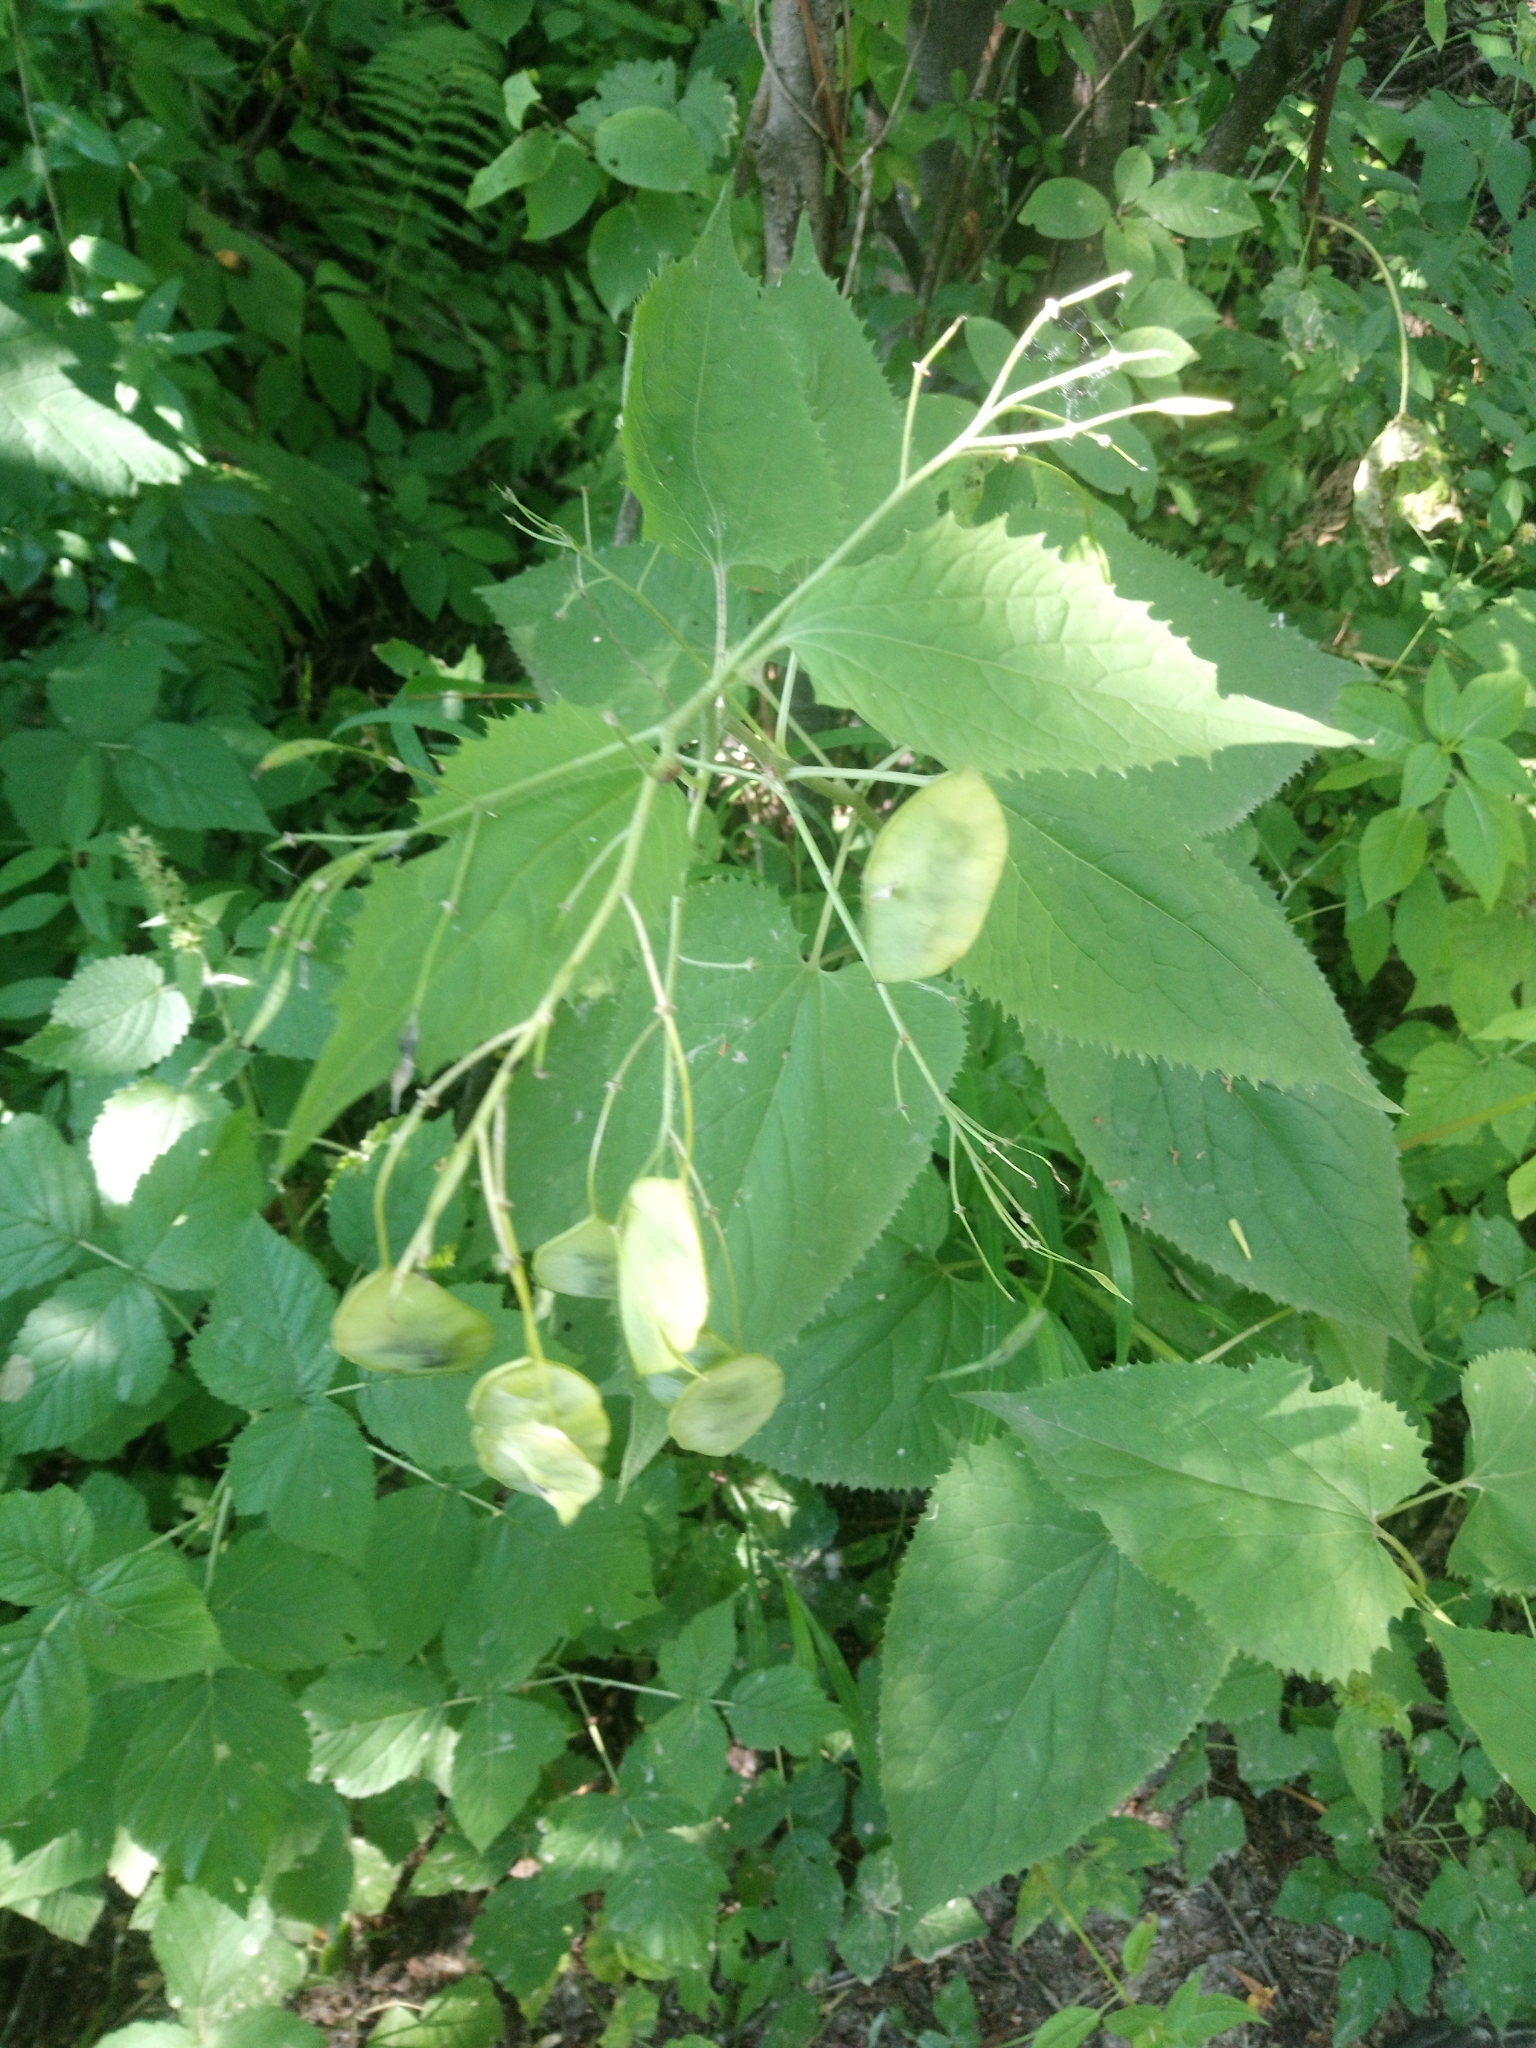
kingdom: Plantae
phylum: Tracheophyta
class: Magnoliopsida
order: Brassicales
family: Brassicaceae
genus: Lunaria
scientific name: Lunaria rediviva
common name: Perennial honesty
